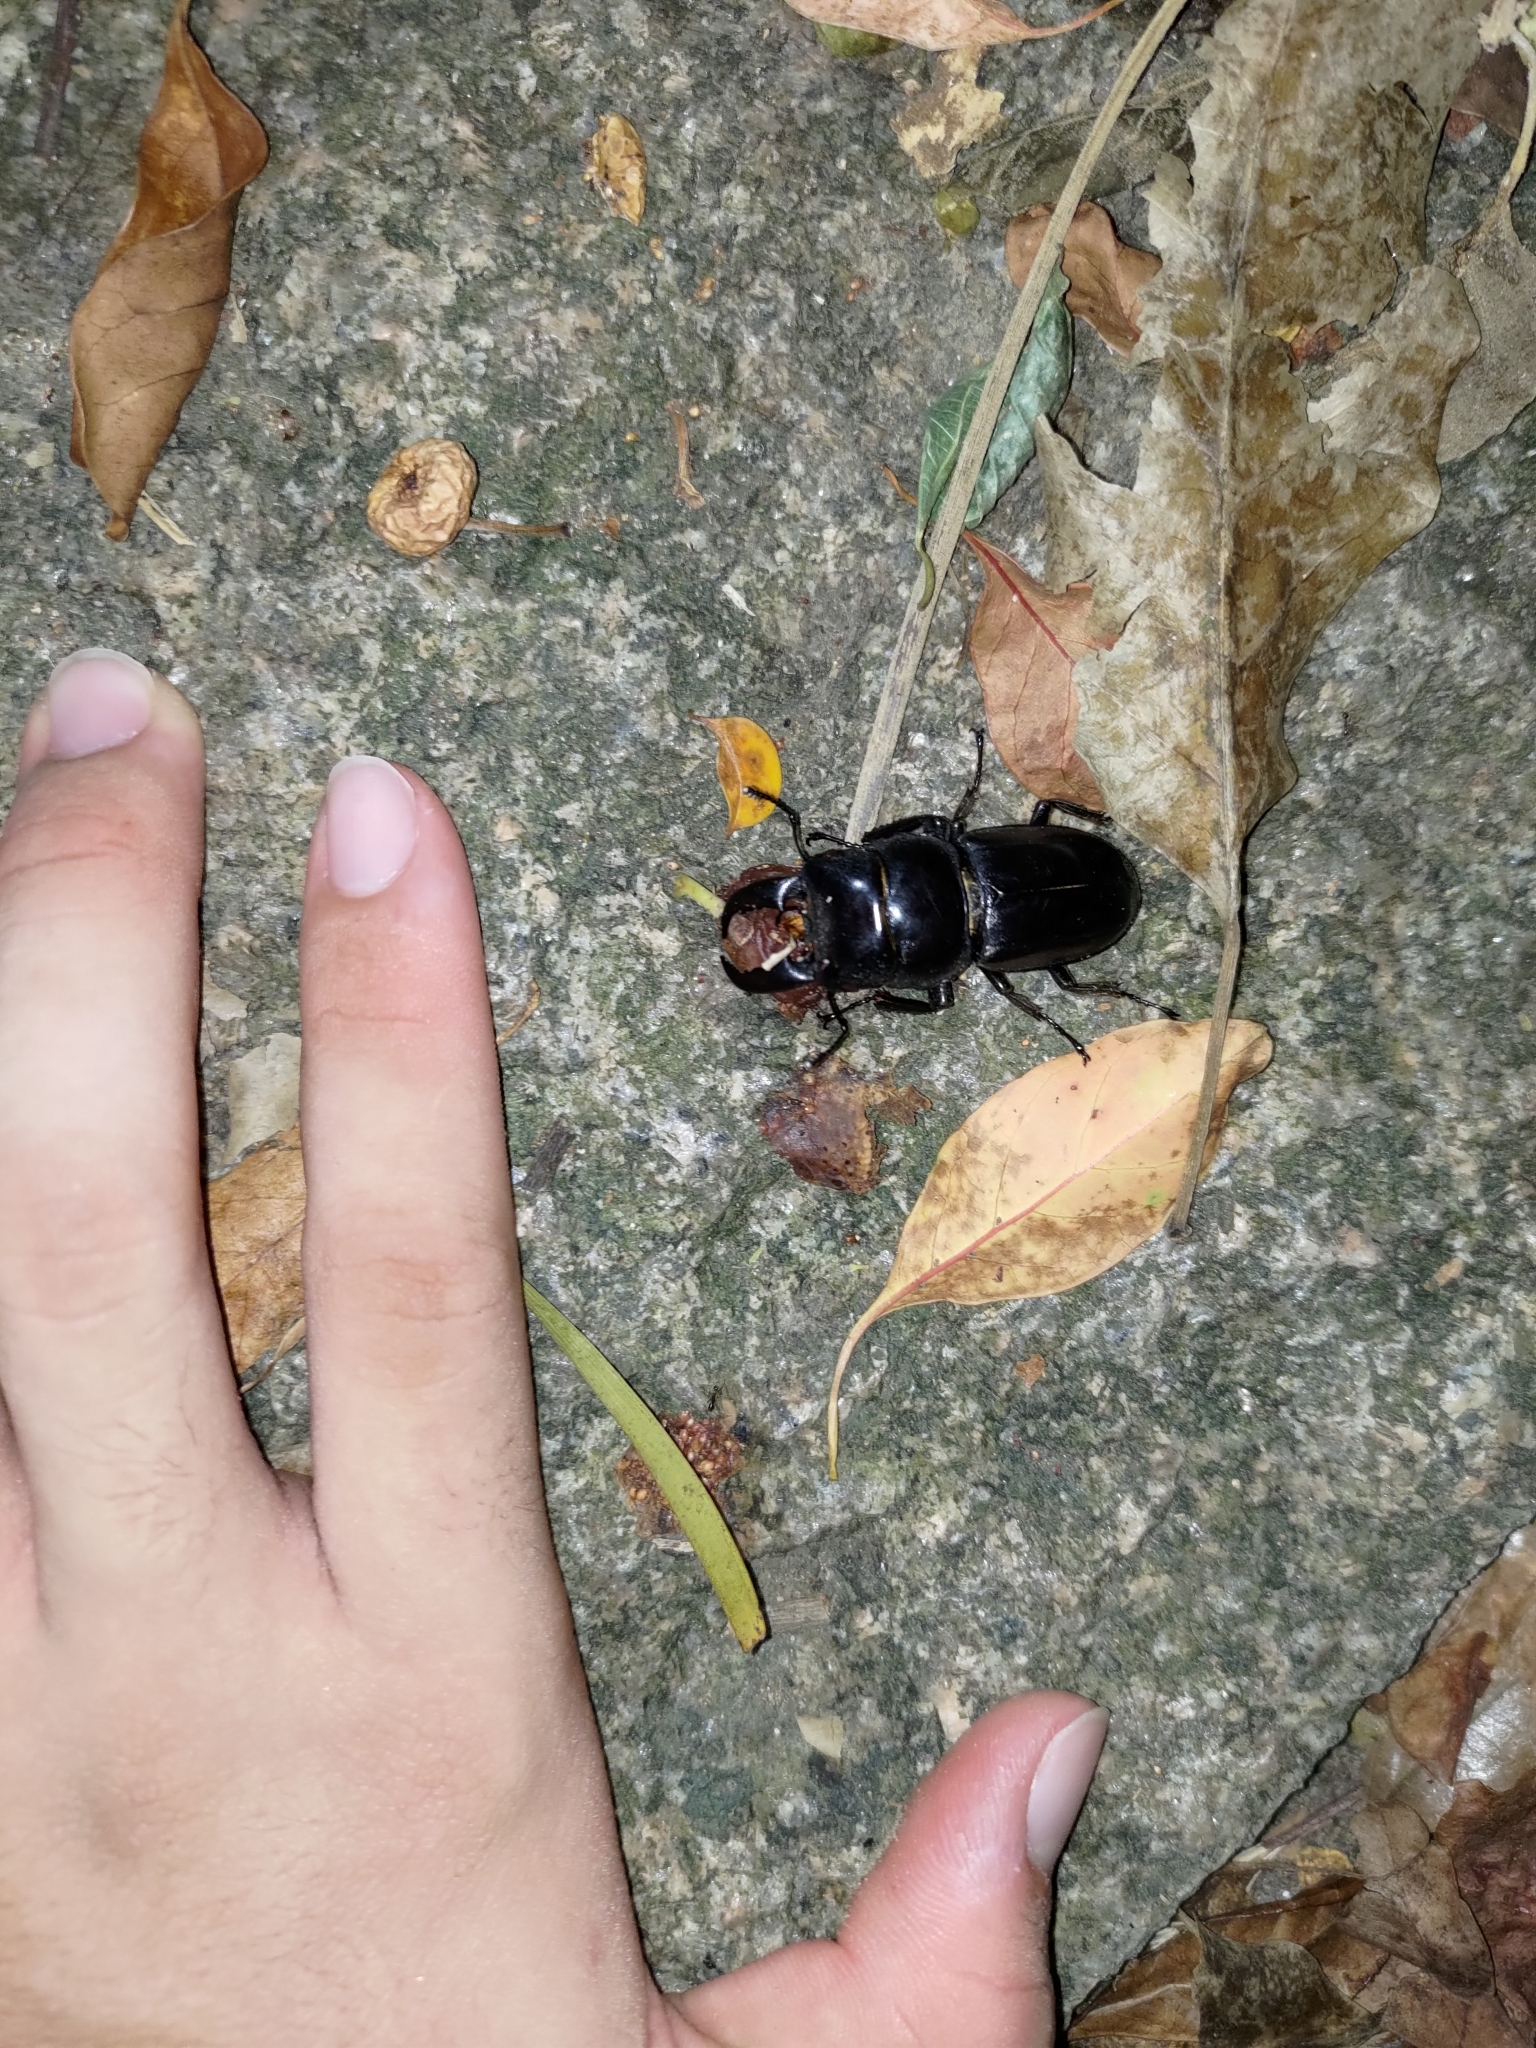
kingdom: Animalia
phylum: Arthropoda
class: Insecta
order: Coleoptera
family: Lucanidae
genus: Serrognathus
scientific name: Serrognathus titanus
